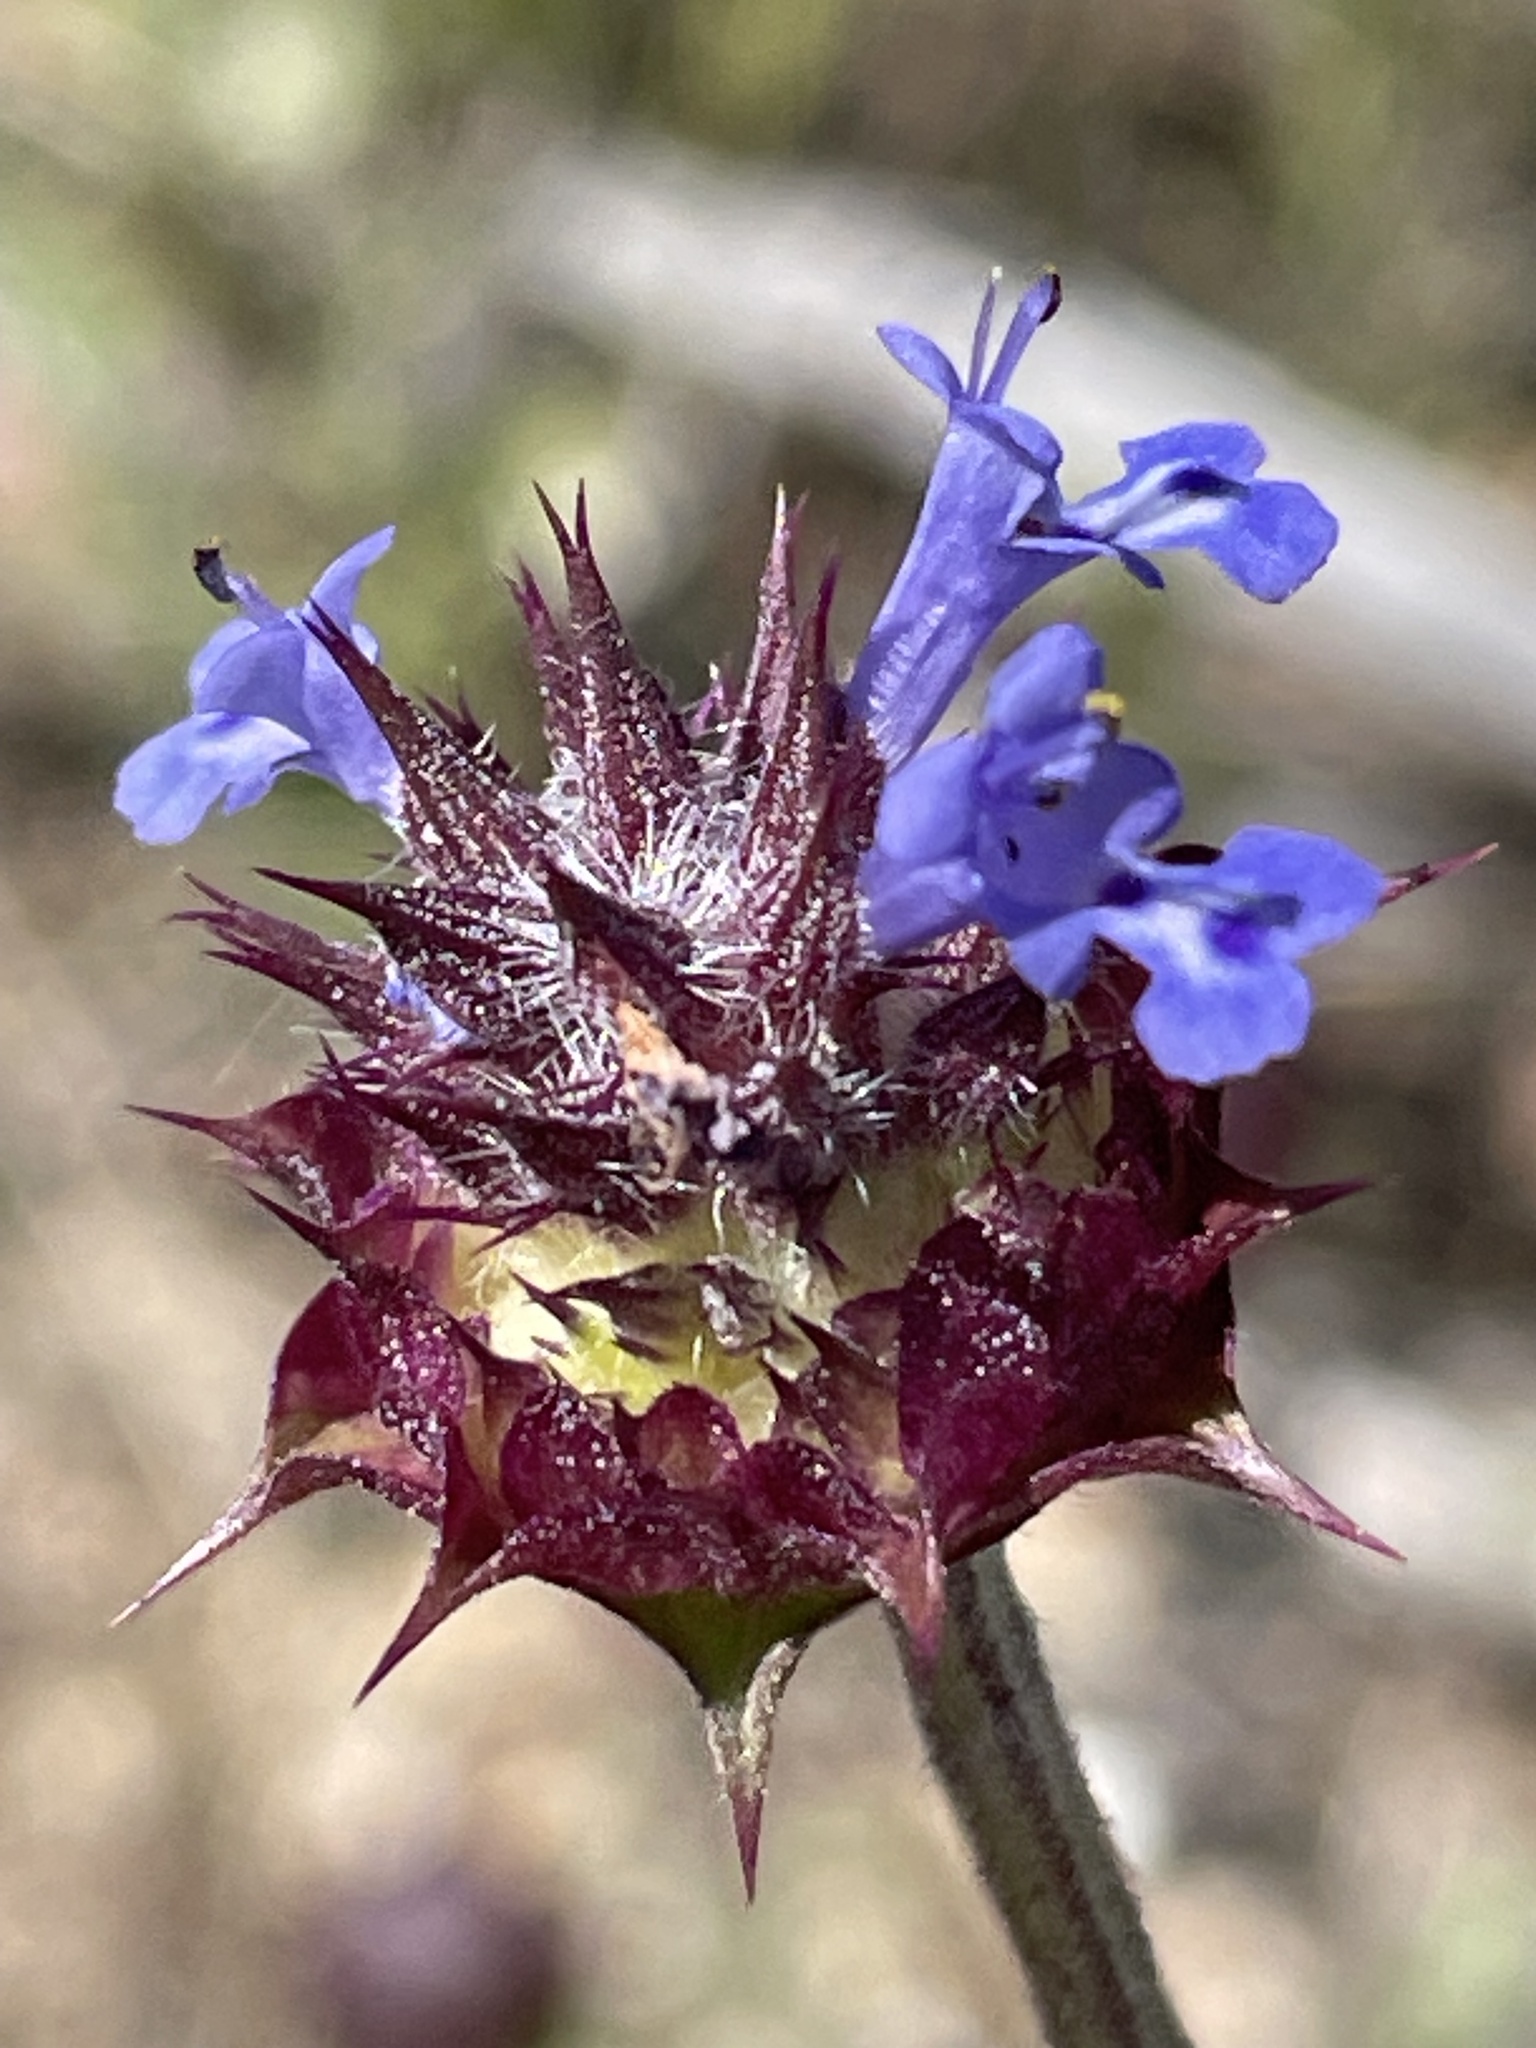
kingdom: Plantae
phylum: Tracheophyta
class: Magnoliopsida
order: Lamiales
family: Lamiaceae
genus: Salvia
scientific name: Salvia columbariae
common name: Chia
